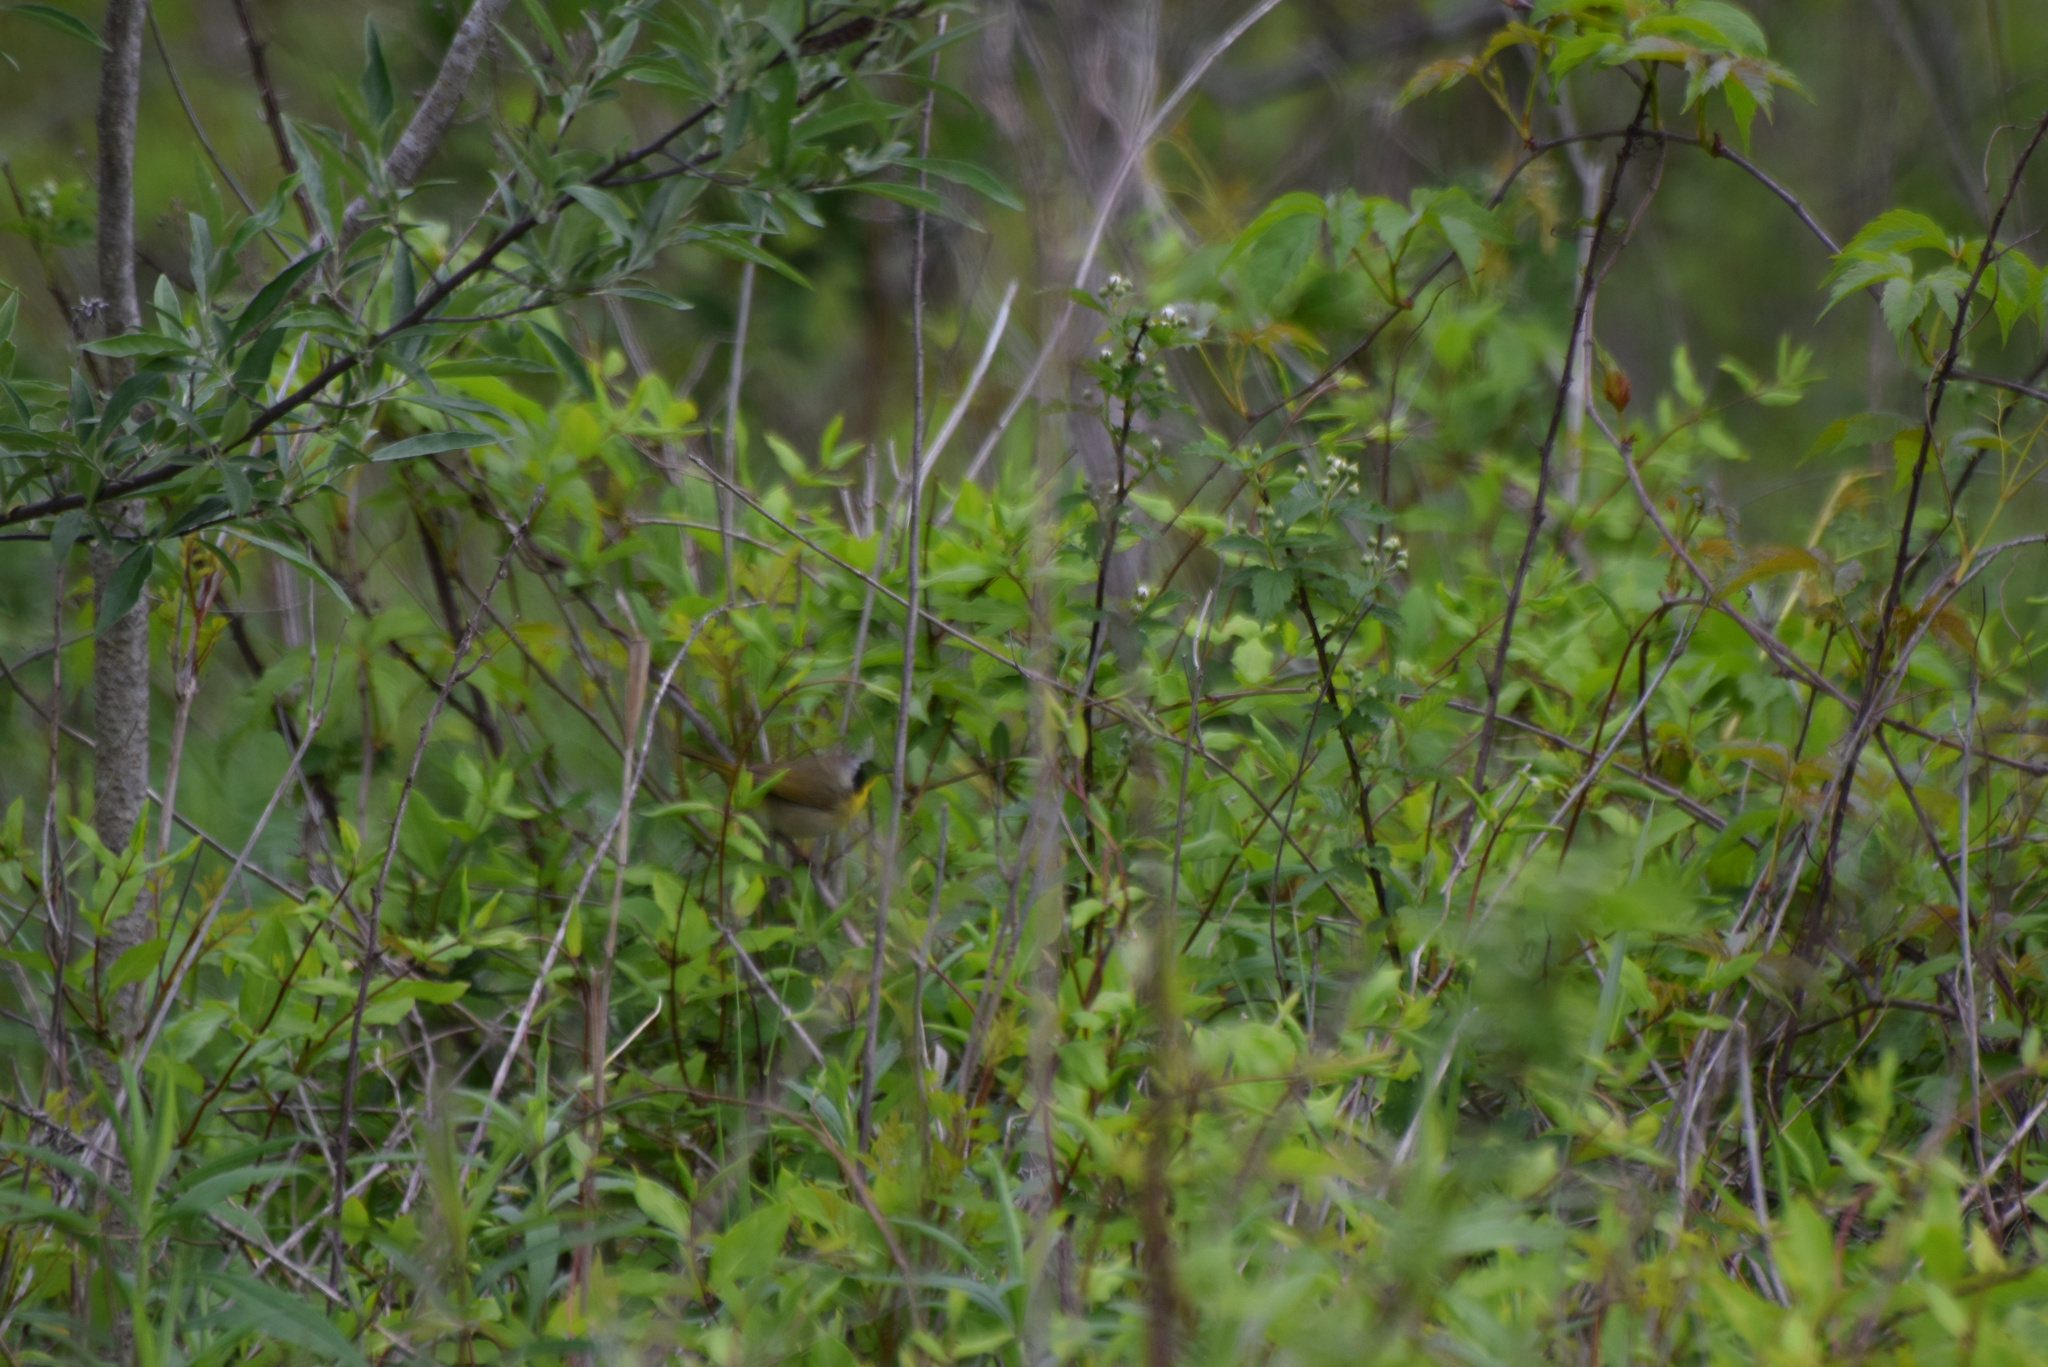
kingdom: Animalia
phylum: Chordata
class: Aves
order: Passeriformes
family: Parulidae
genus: Geothlypis
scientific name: Geothlypis trichas
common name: Common yellowthroat
